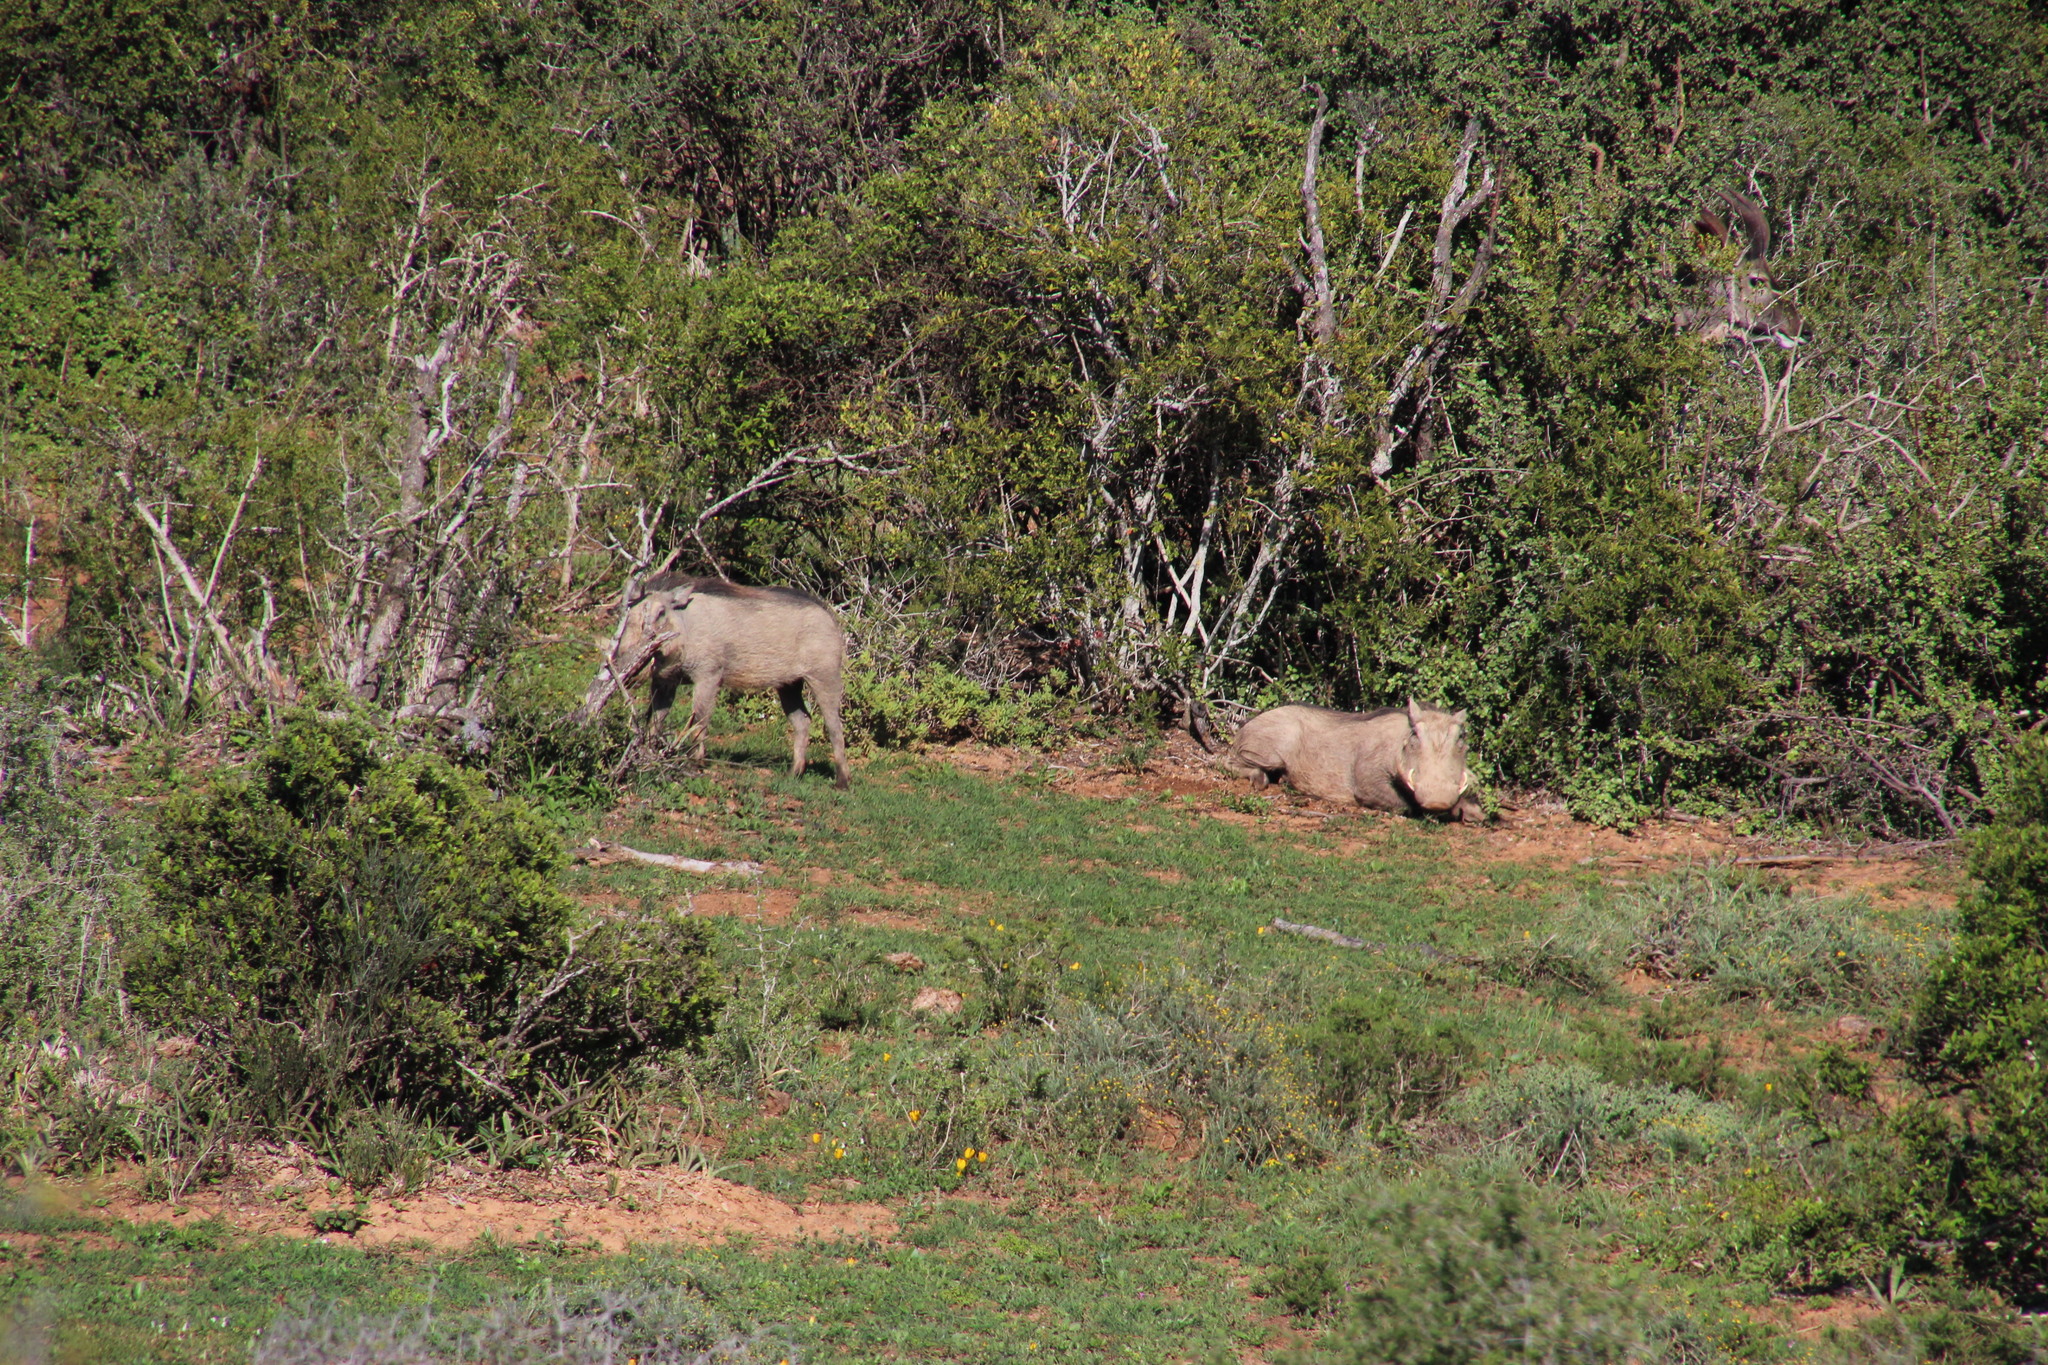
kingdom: Animalia
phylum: Chordata
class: Mammalia
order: Artiodactyla
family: Suidae
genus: Phacochoerus
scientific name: Phacochoerus africanus
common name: Common warthog
